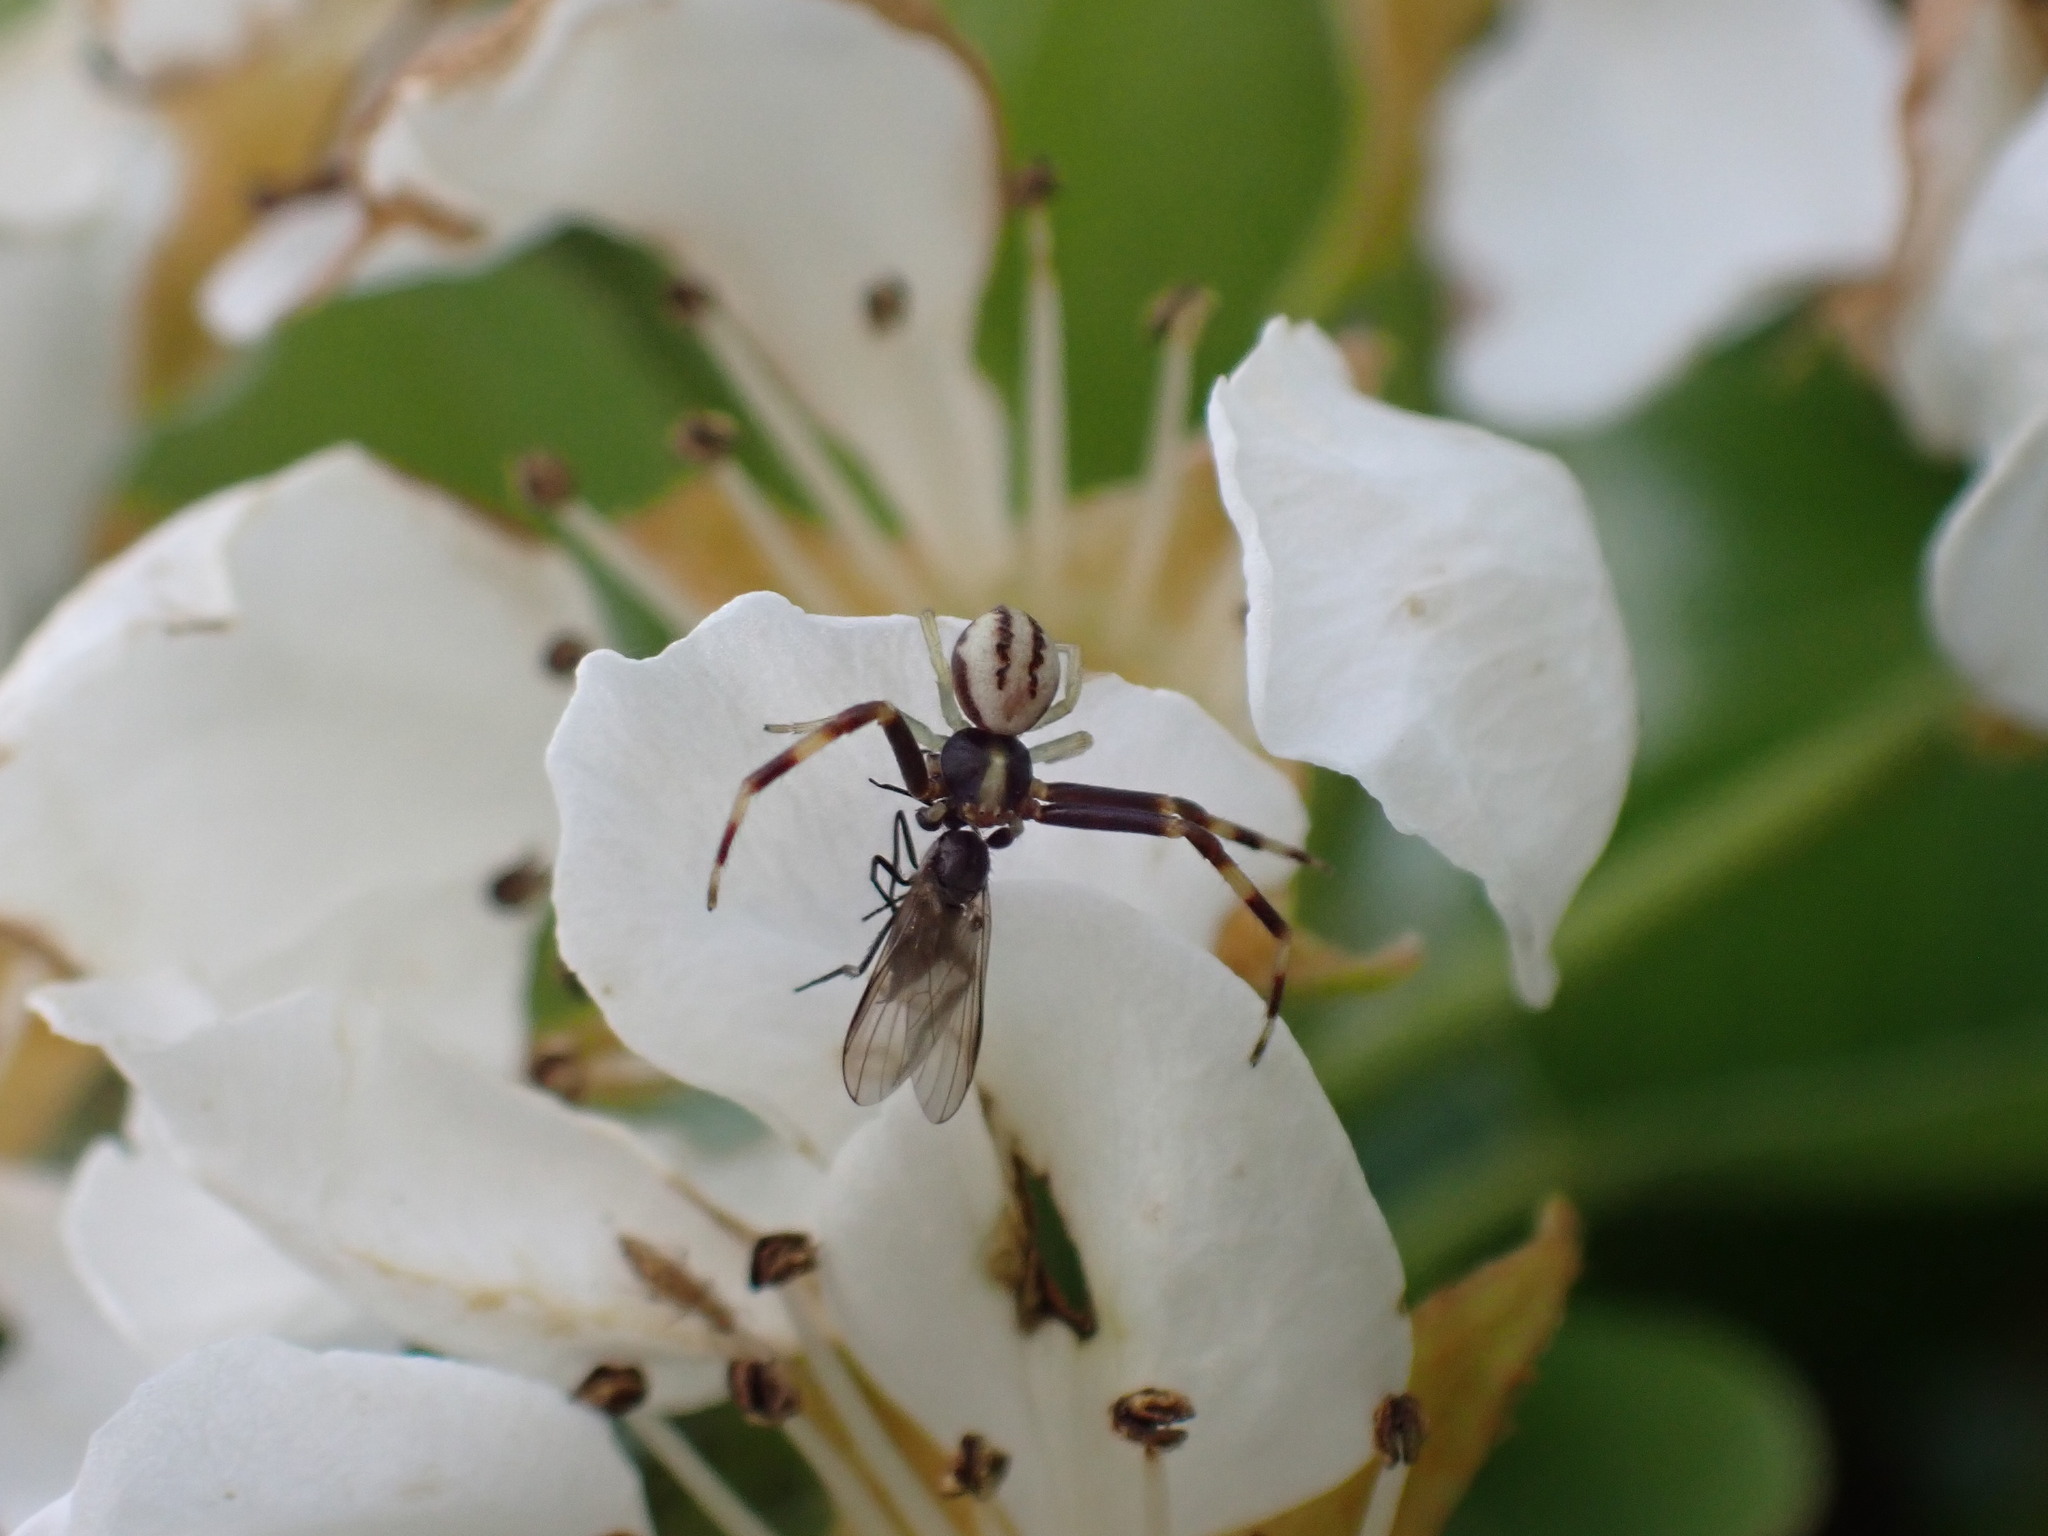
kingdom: Animalia
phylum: Arthropoda
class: Arachnida
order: Araneae
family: Thomisidae
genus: Misumena
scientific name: Misumena vatia
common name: Goldenrod crab spider
